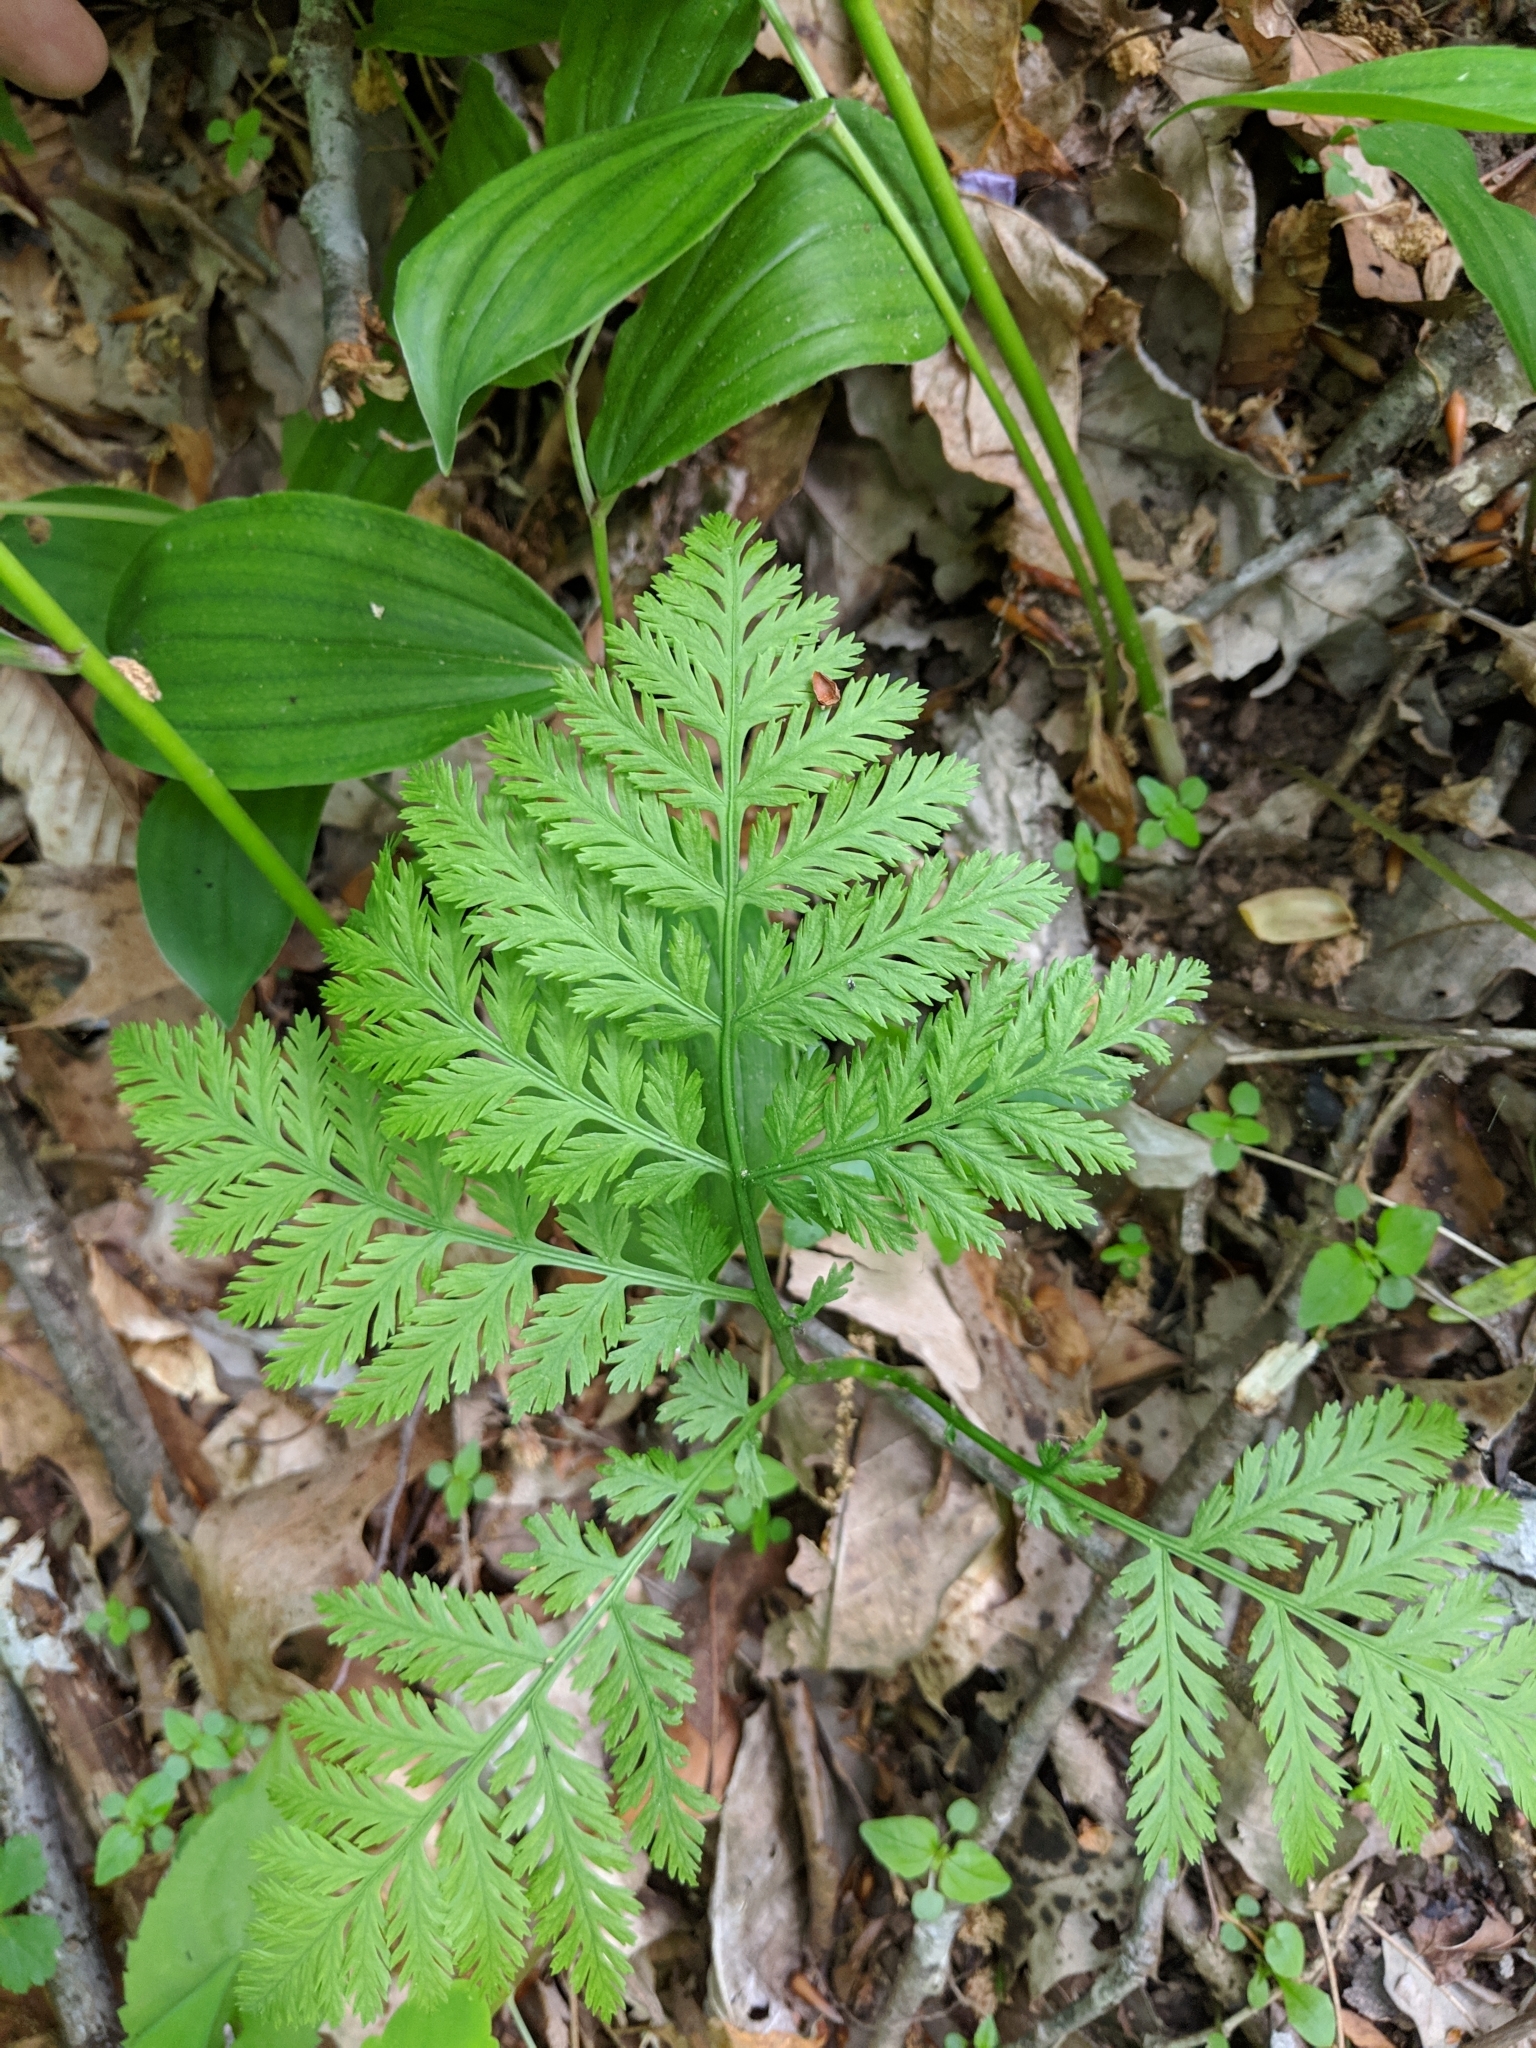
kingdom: Plantae
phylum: Tracheophyta
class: Polypodiopsida
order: Ophioglossales
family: Ophioglossaceae
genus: Botrypus
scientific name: Botrypus virginianus
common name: Common grapefern
